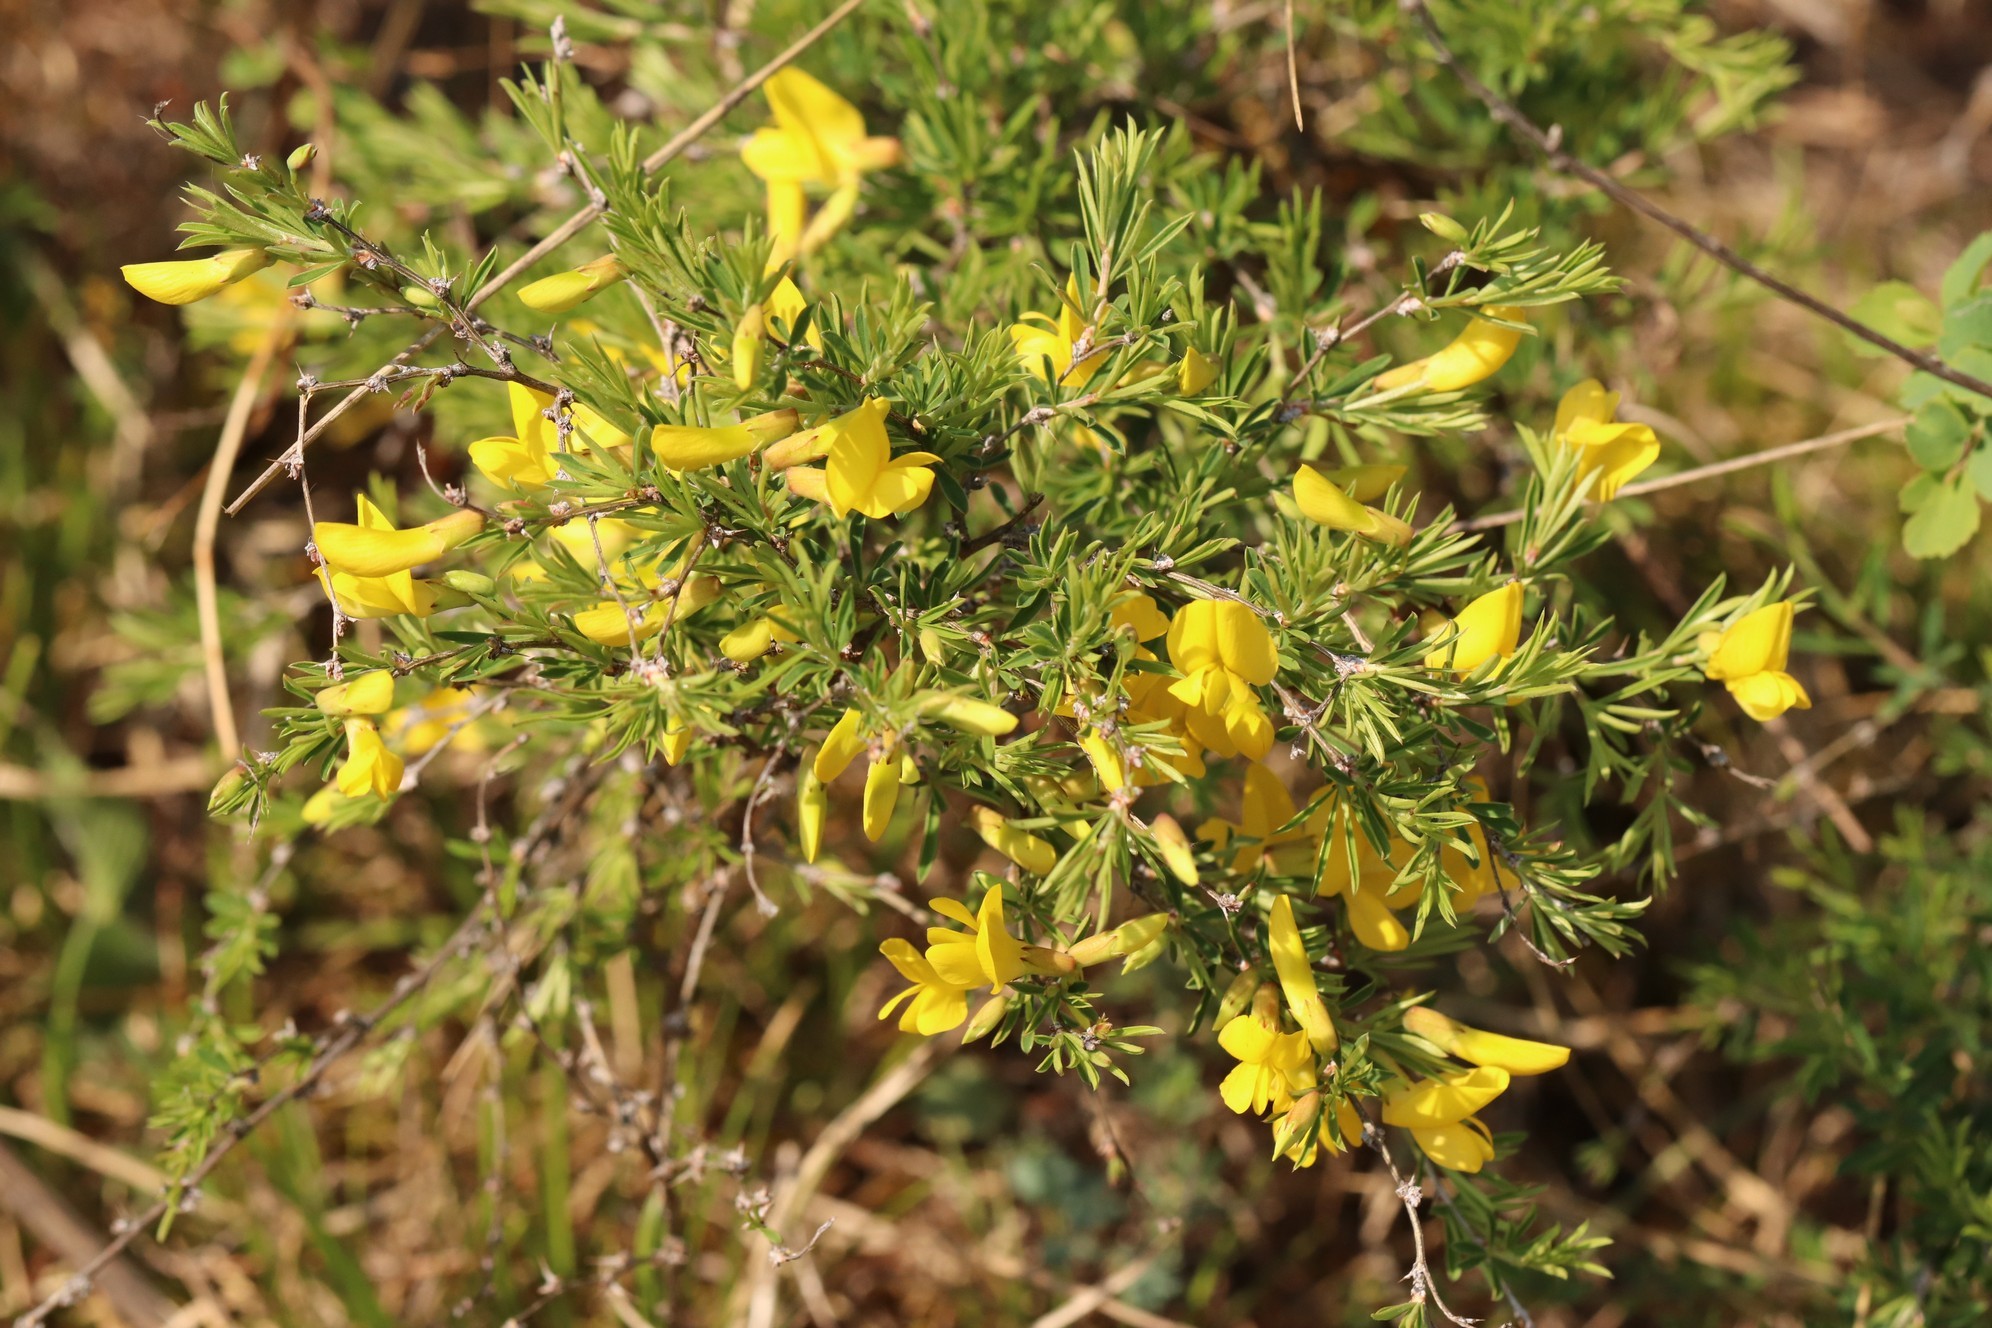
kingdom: Plantae
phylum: Tracheophyta
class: Magnoliopsida
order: Fabales
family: Fabaceae
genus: Caragana
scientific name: Caragana pygmaea
